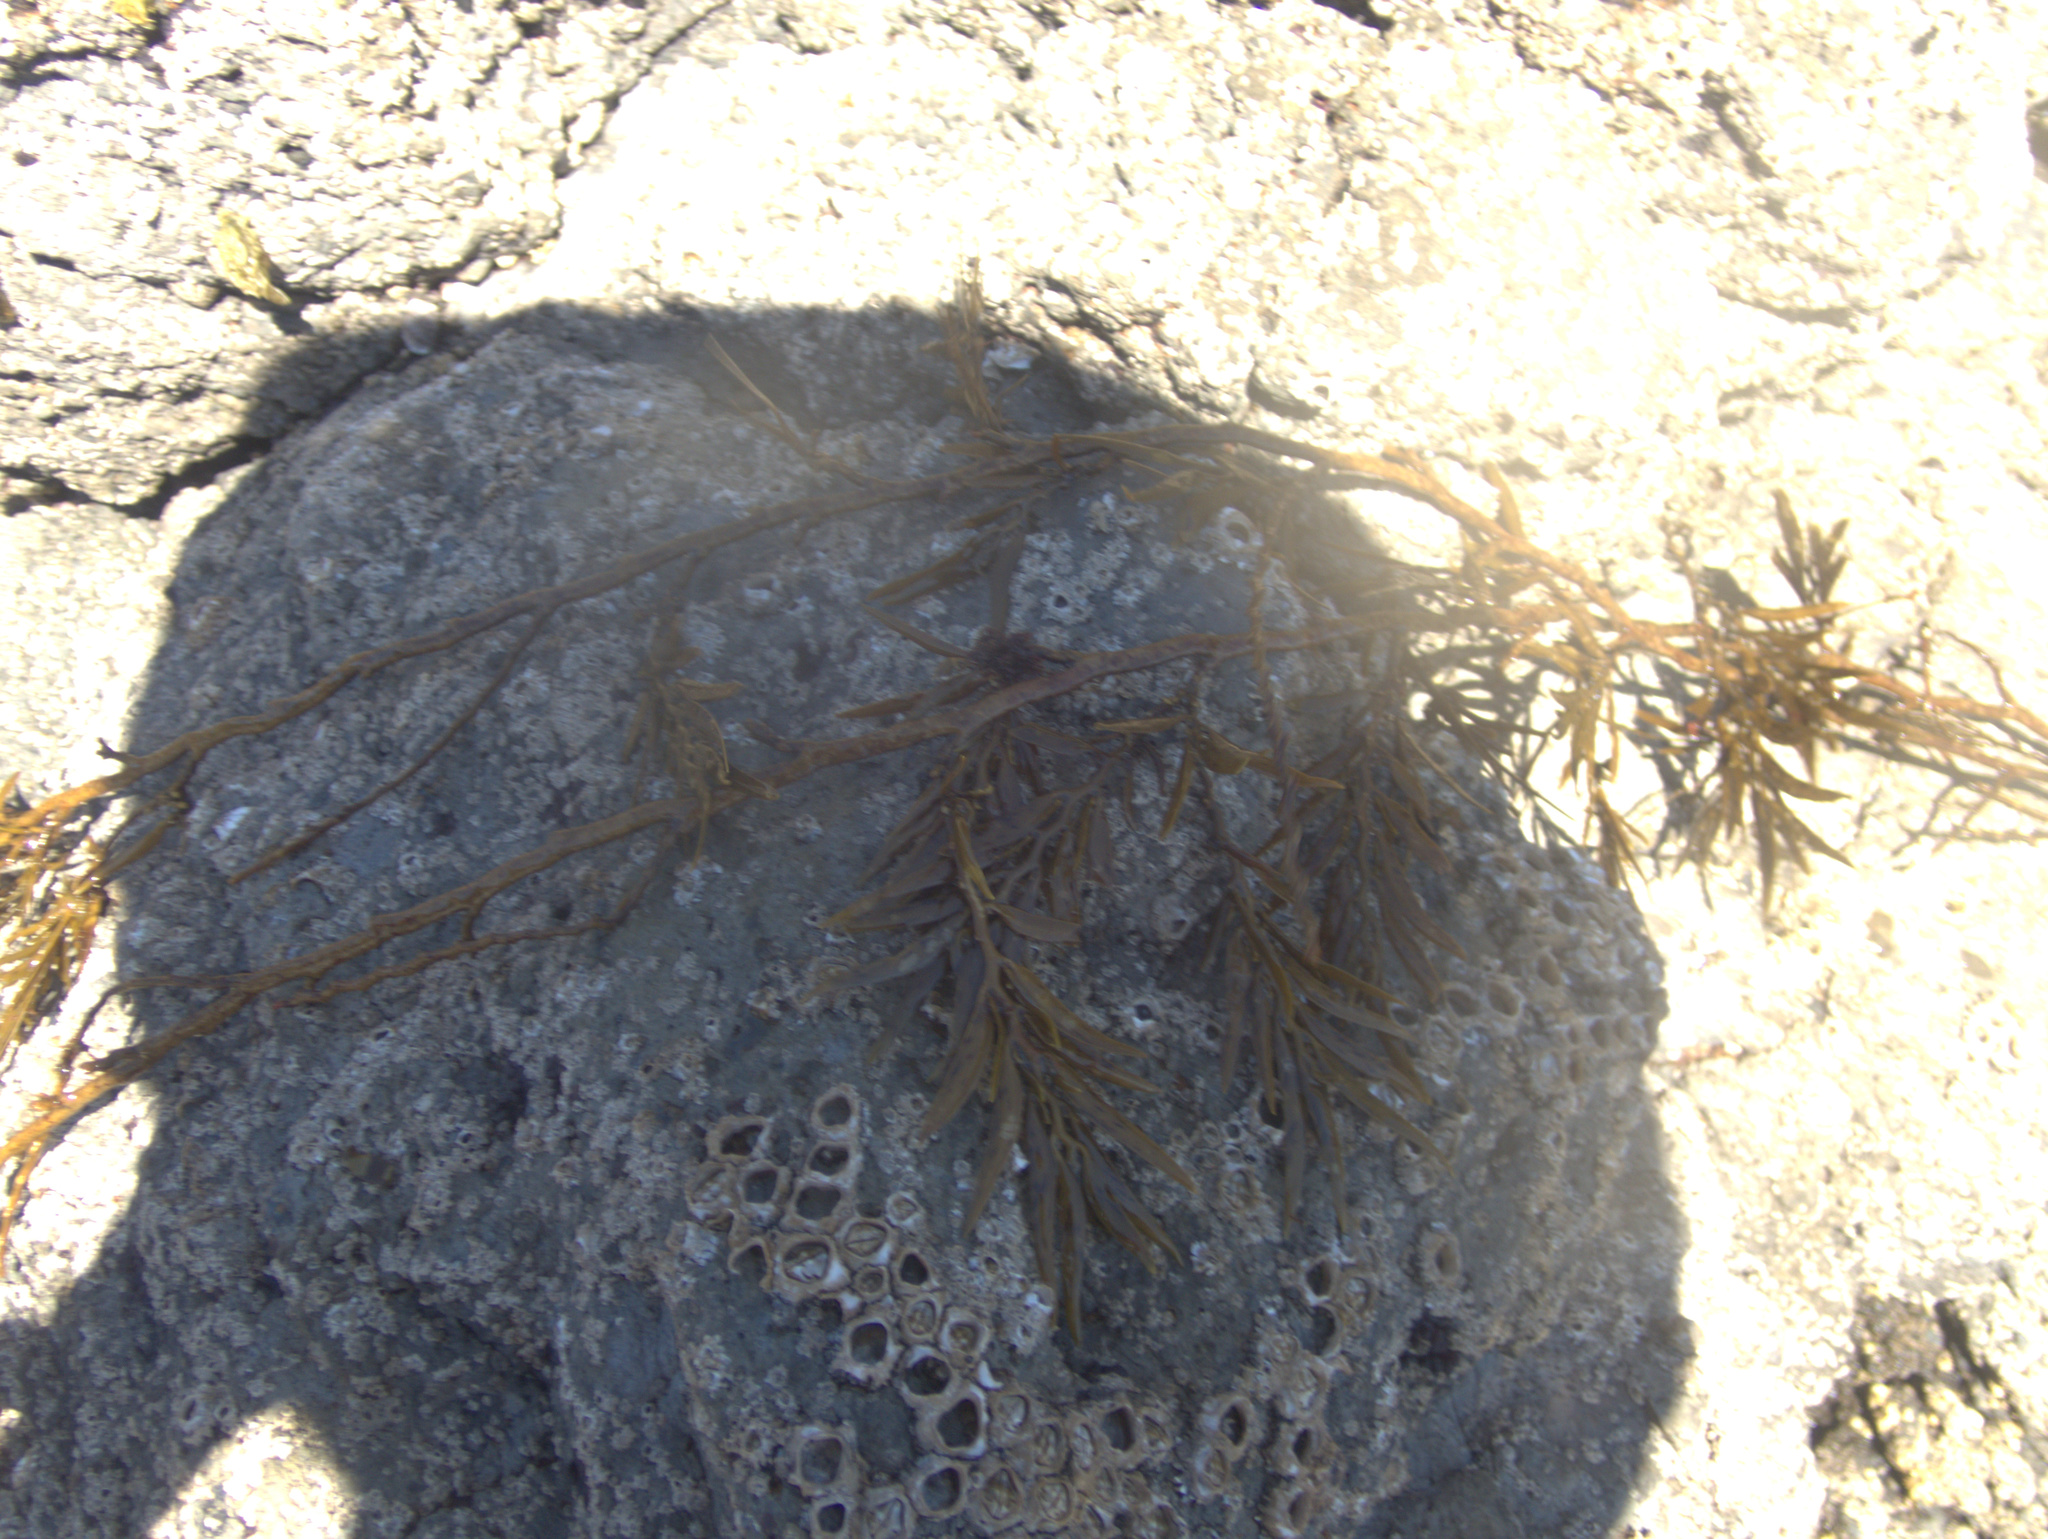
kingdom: Chromista
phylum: Ochrophyta
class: Phaeophyceae
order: Fucales
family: Sargassaceae
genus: Carpophyllum
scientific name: Carpophyllum angustifolium
